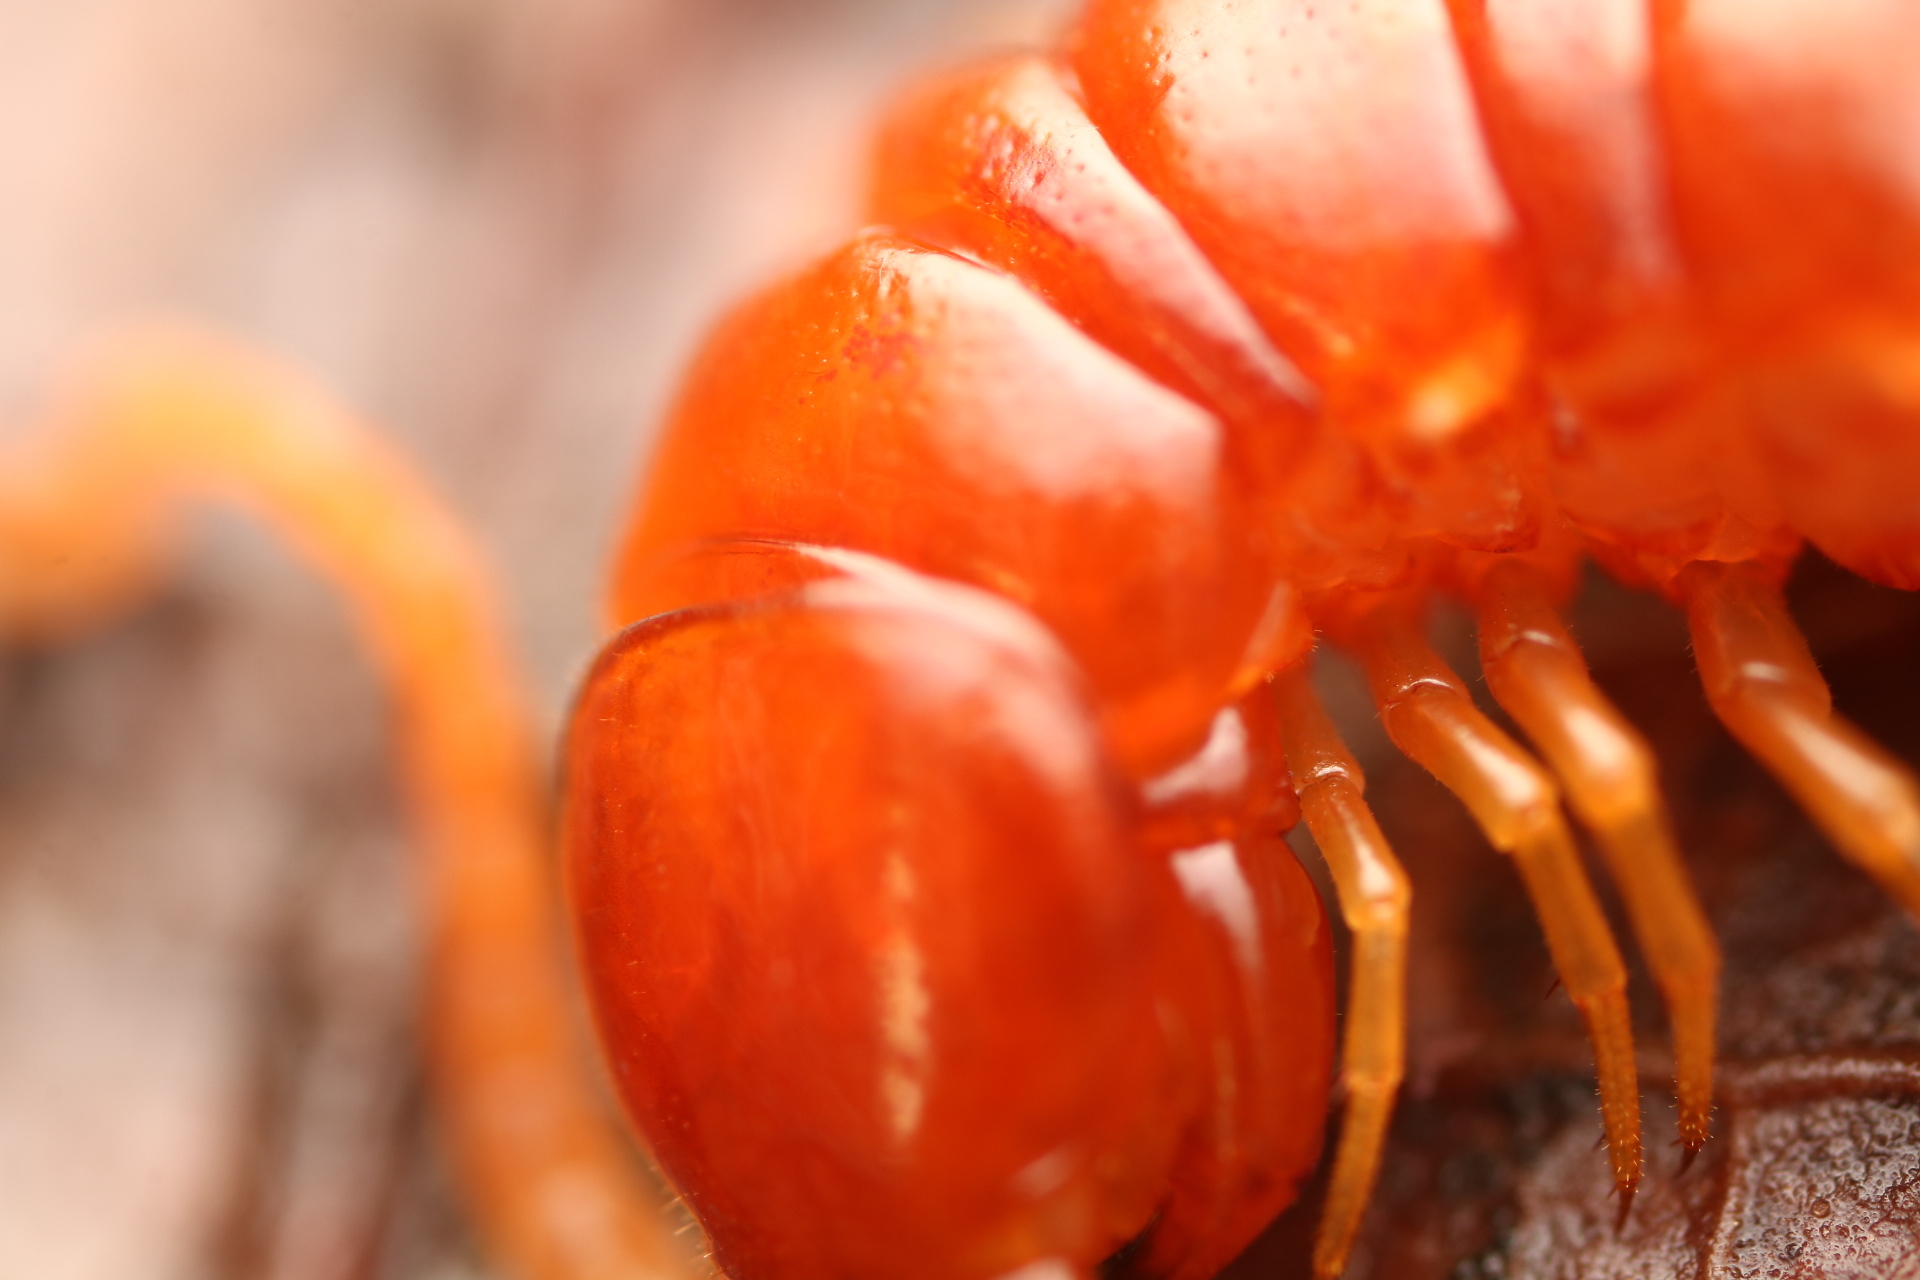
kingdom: Animalia
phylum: Arthropoda
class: Chilopoda
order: Scolopendromorpha
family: Scolopocryptopidae
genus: Scolopocryptops
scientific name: Scolopocryptops sexspinosus
